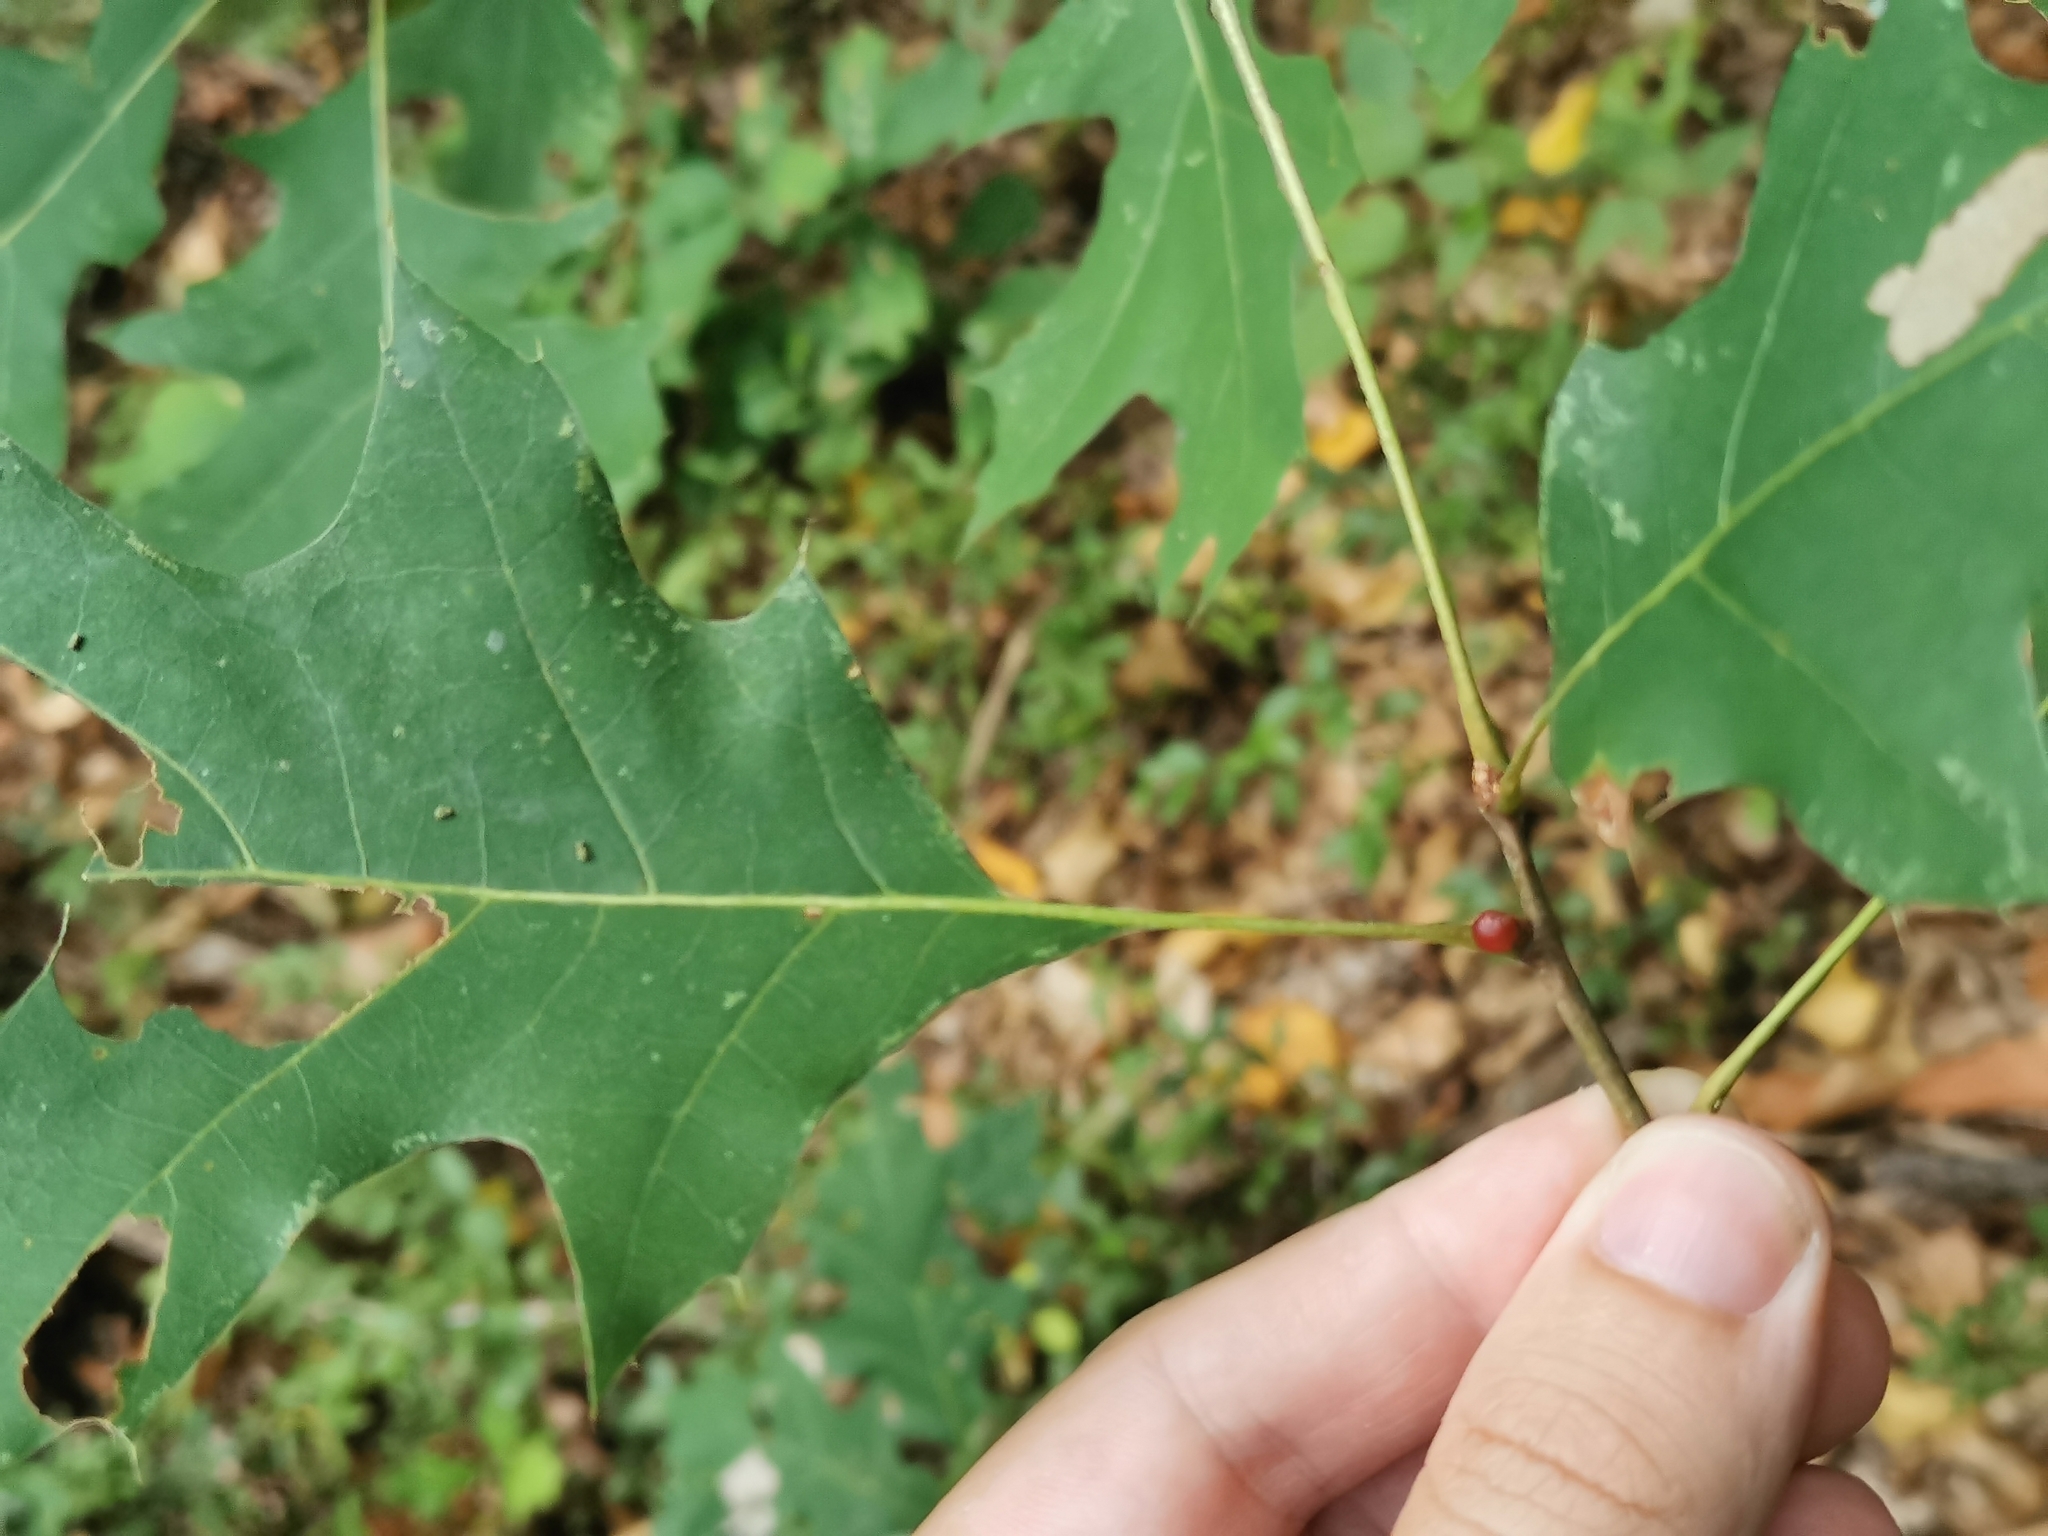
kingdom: Animalia
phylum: Arthropoda
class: Insecta
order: Hymenoptera
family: Cynipidae
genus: Amphibolips
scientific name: Amphibolips
